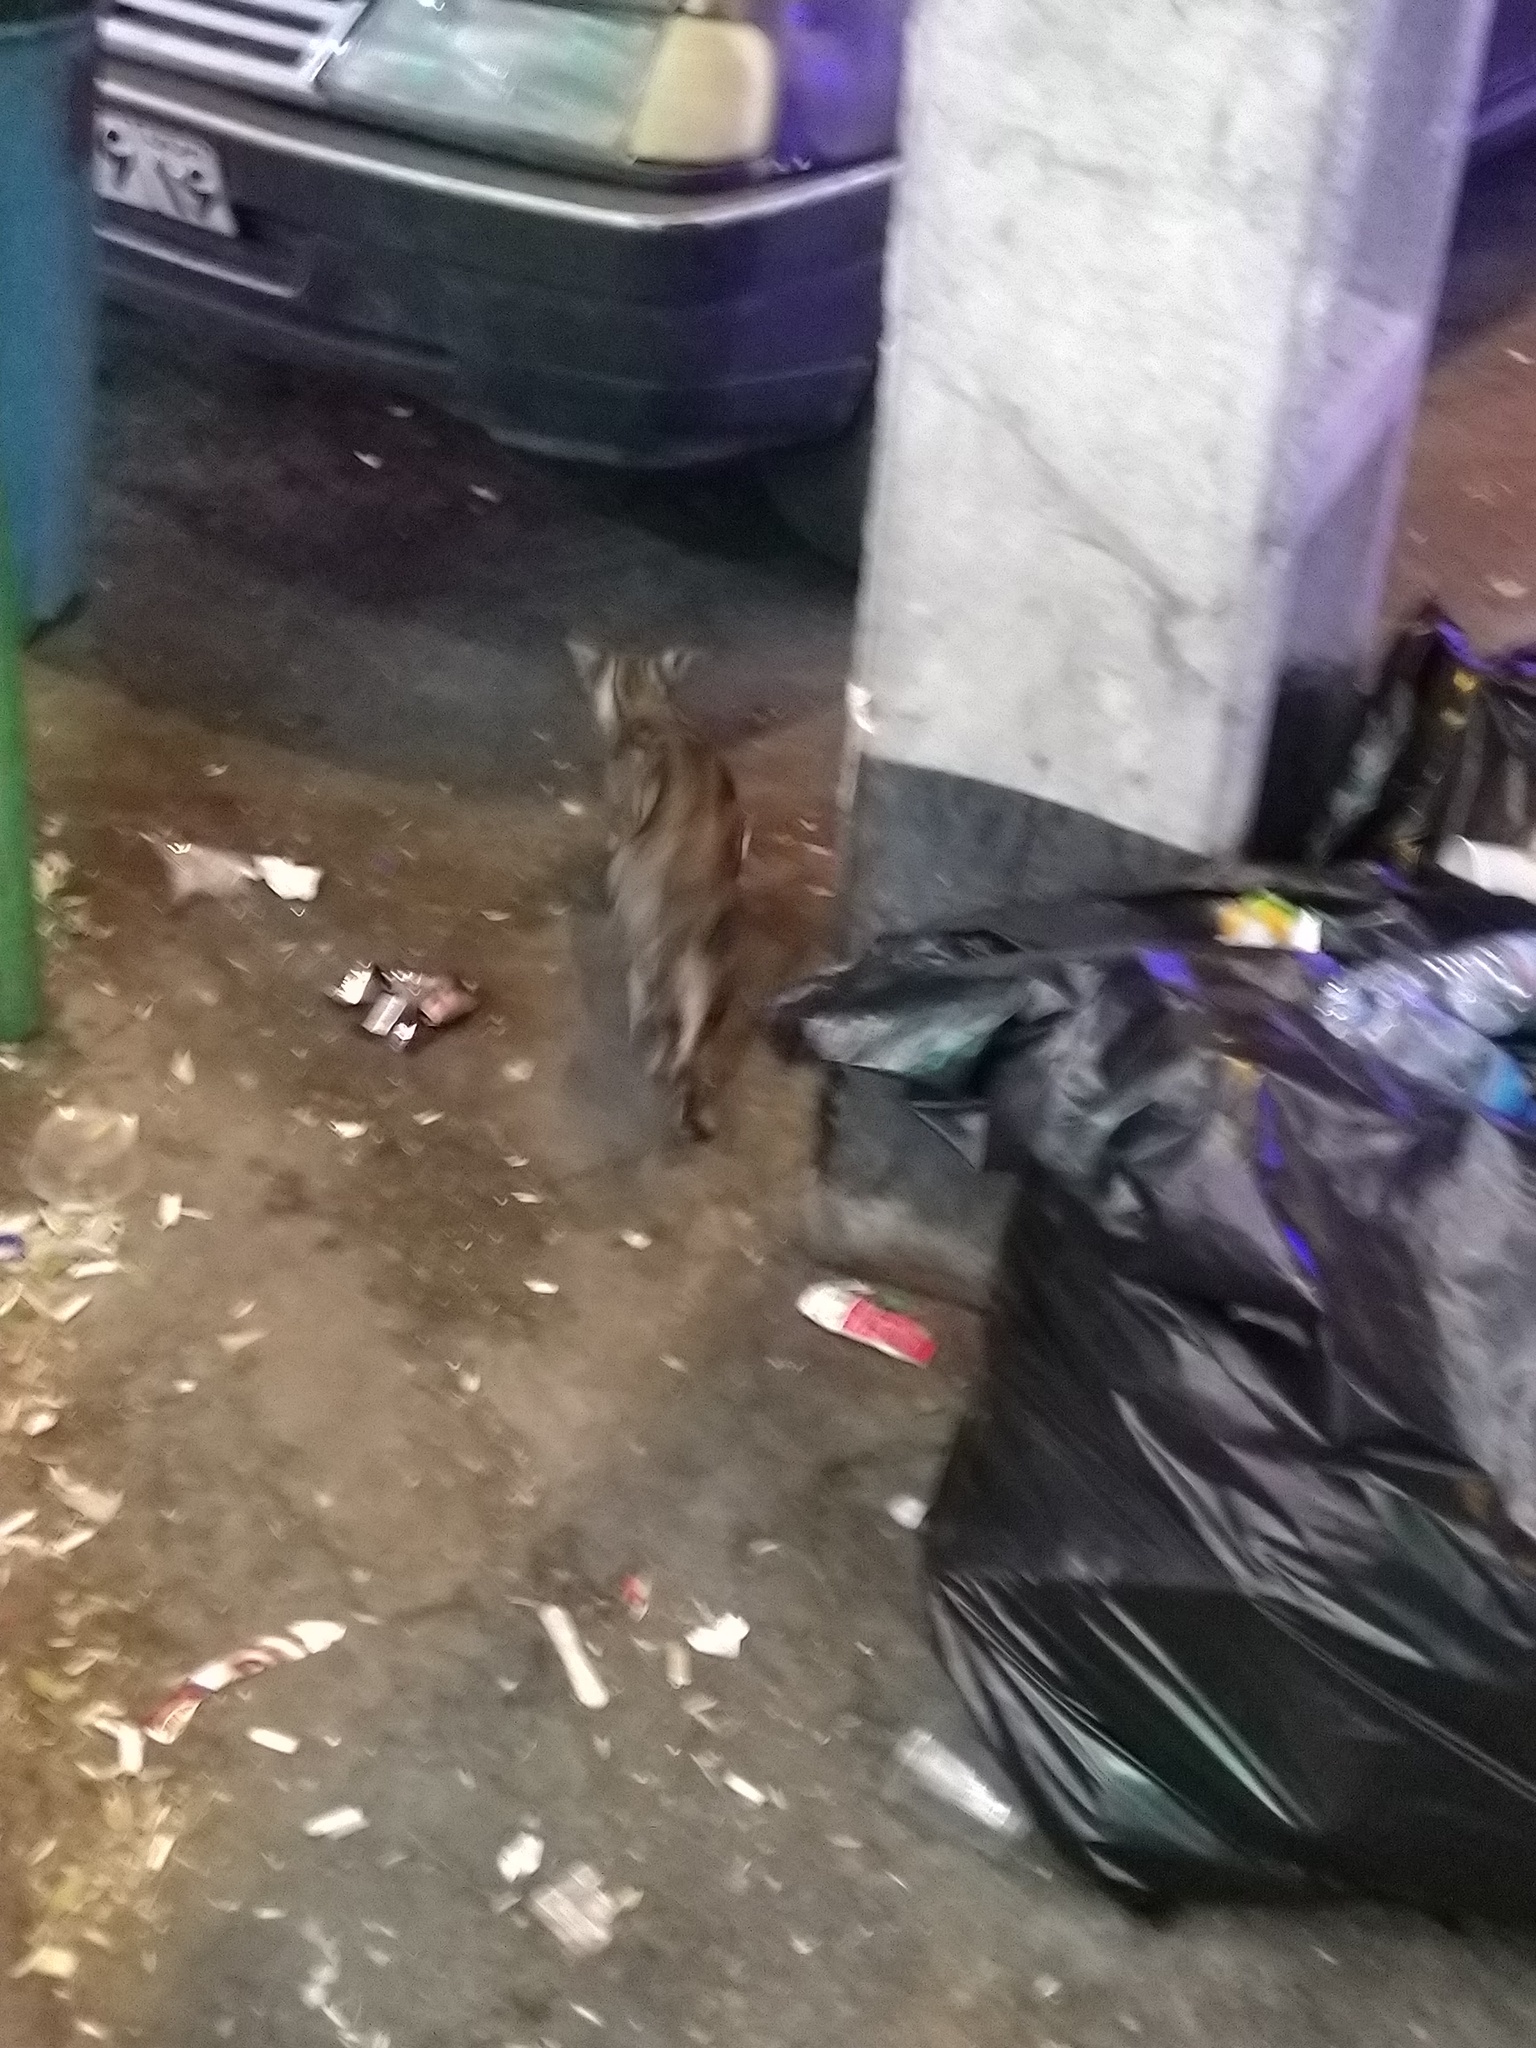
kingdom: Animalia
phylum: Chordata
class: Mammalia
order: Carnivora
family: Felidae
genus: Felis
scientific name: Felis catus
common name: Domestic cat
